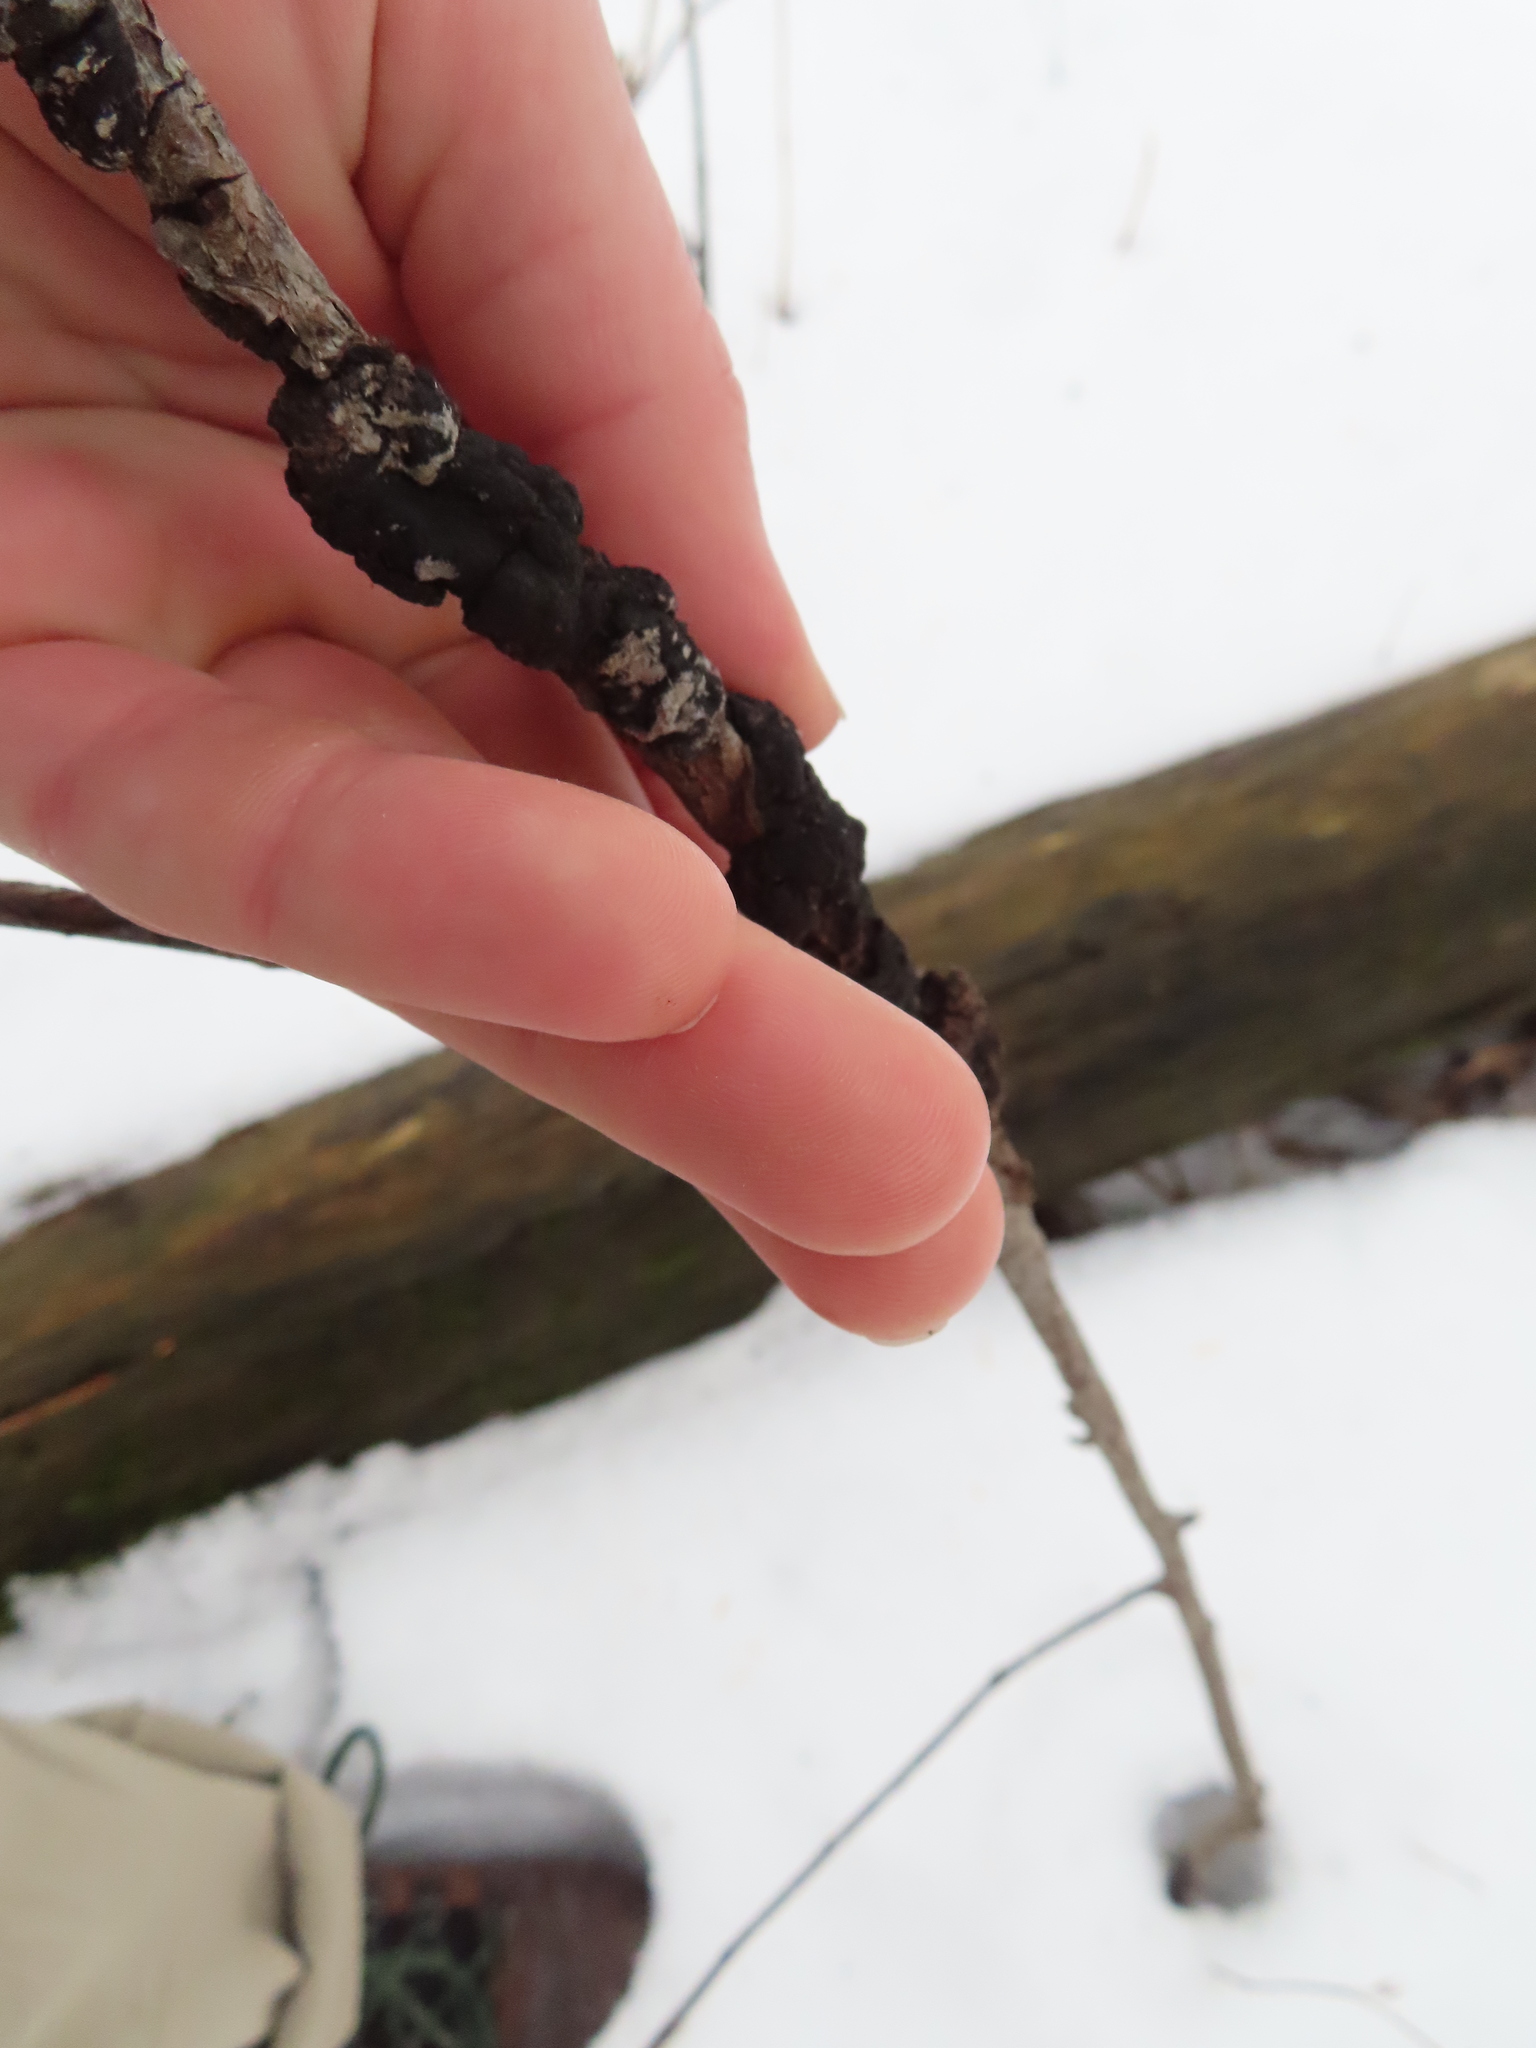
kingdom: Fungi
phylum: Ascomycota
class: Dothideomycetes
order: Venturiales
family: Venturiaceae
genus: Apiosporina
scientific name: Apiosporina morbosa
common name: Black knot
